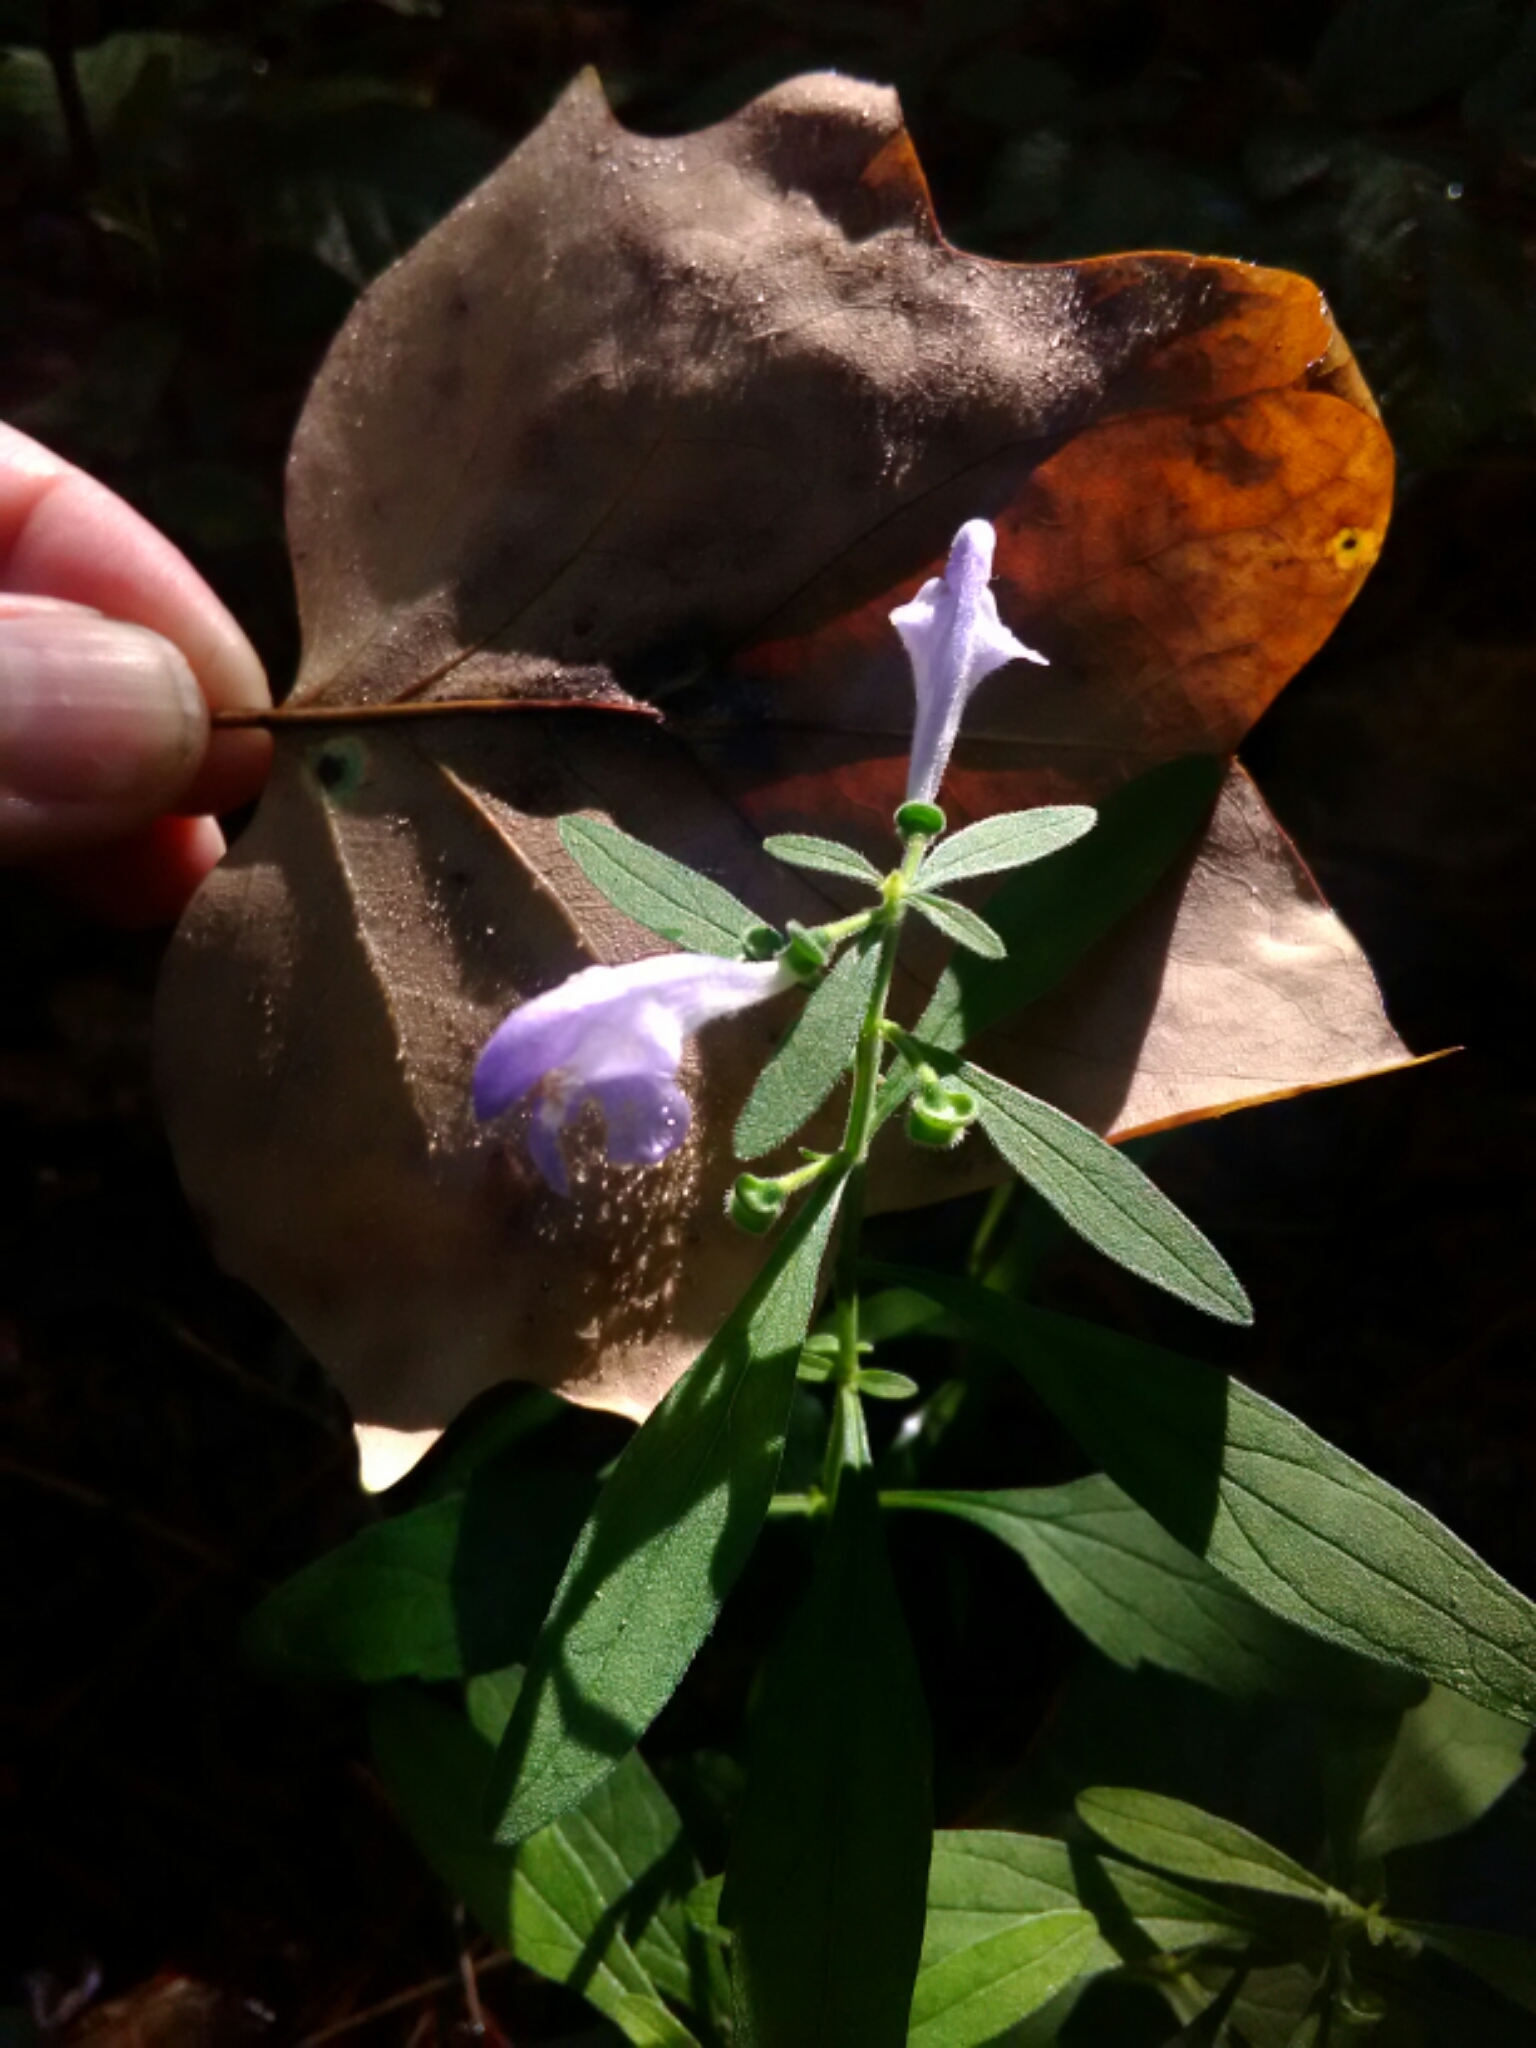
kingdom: Plantae
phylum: Tracheophyta
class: Magnoliopsida
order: Lamiales
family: Lamiaceae
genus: Scutellaria
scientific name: Scutellaria integrifolia
